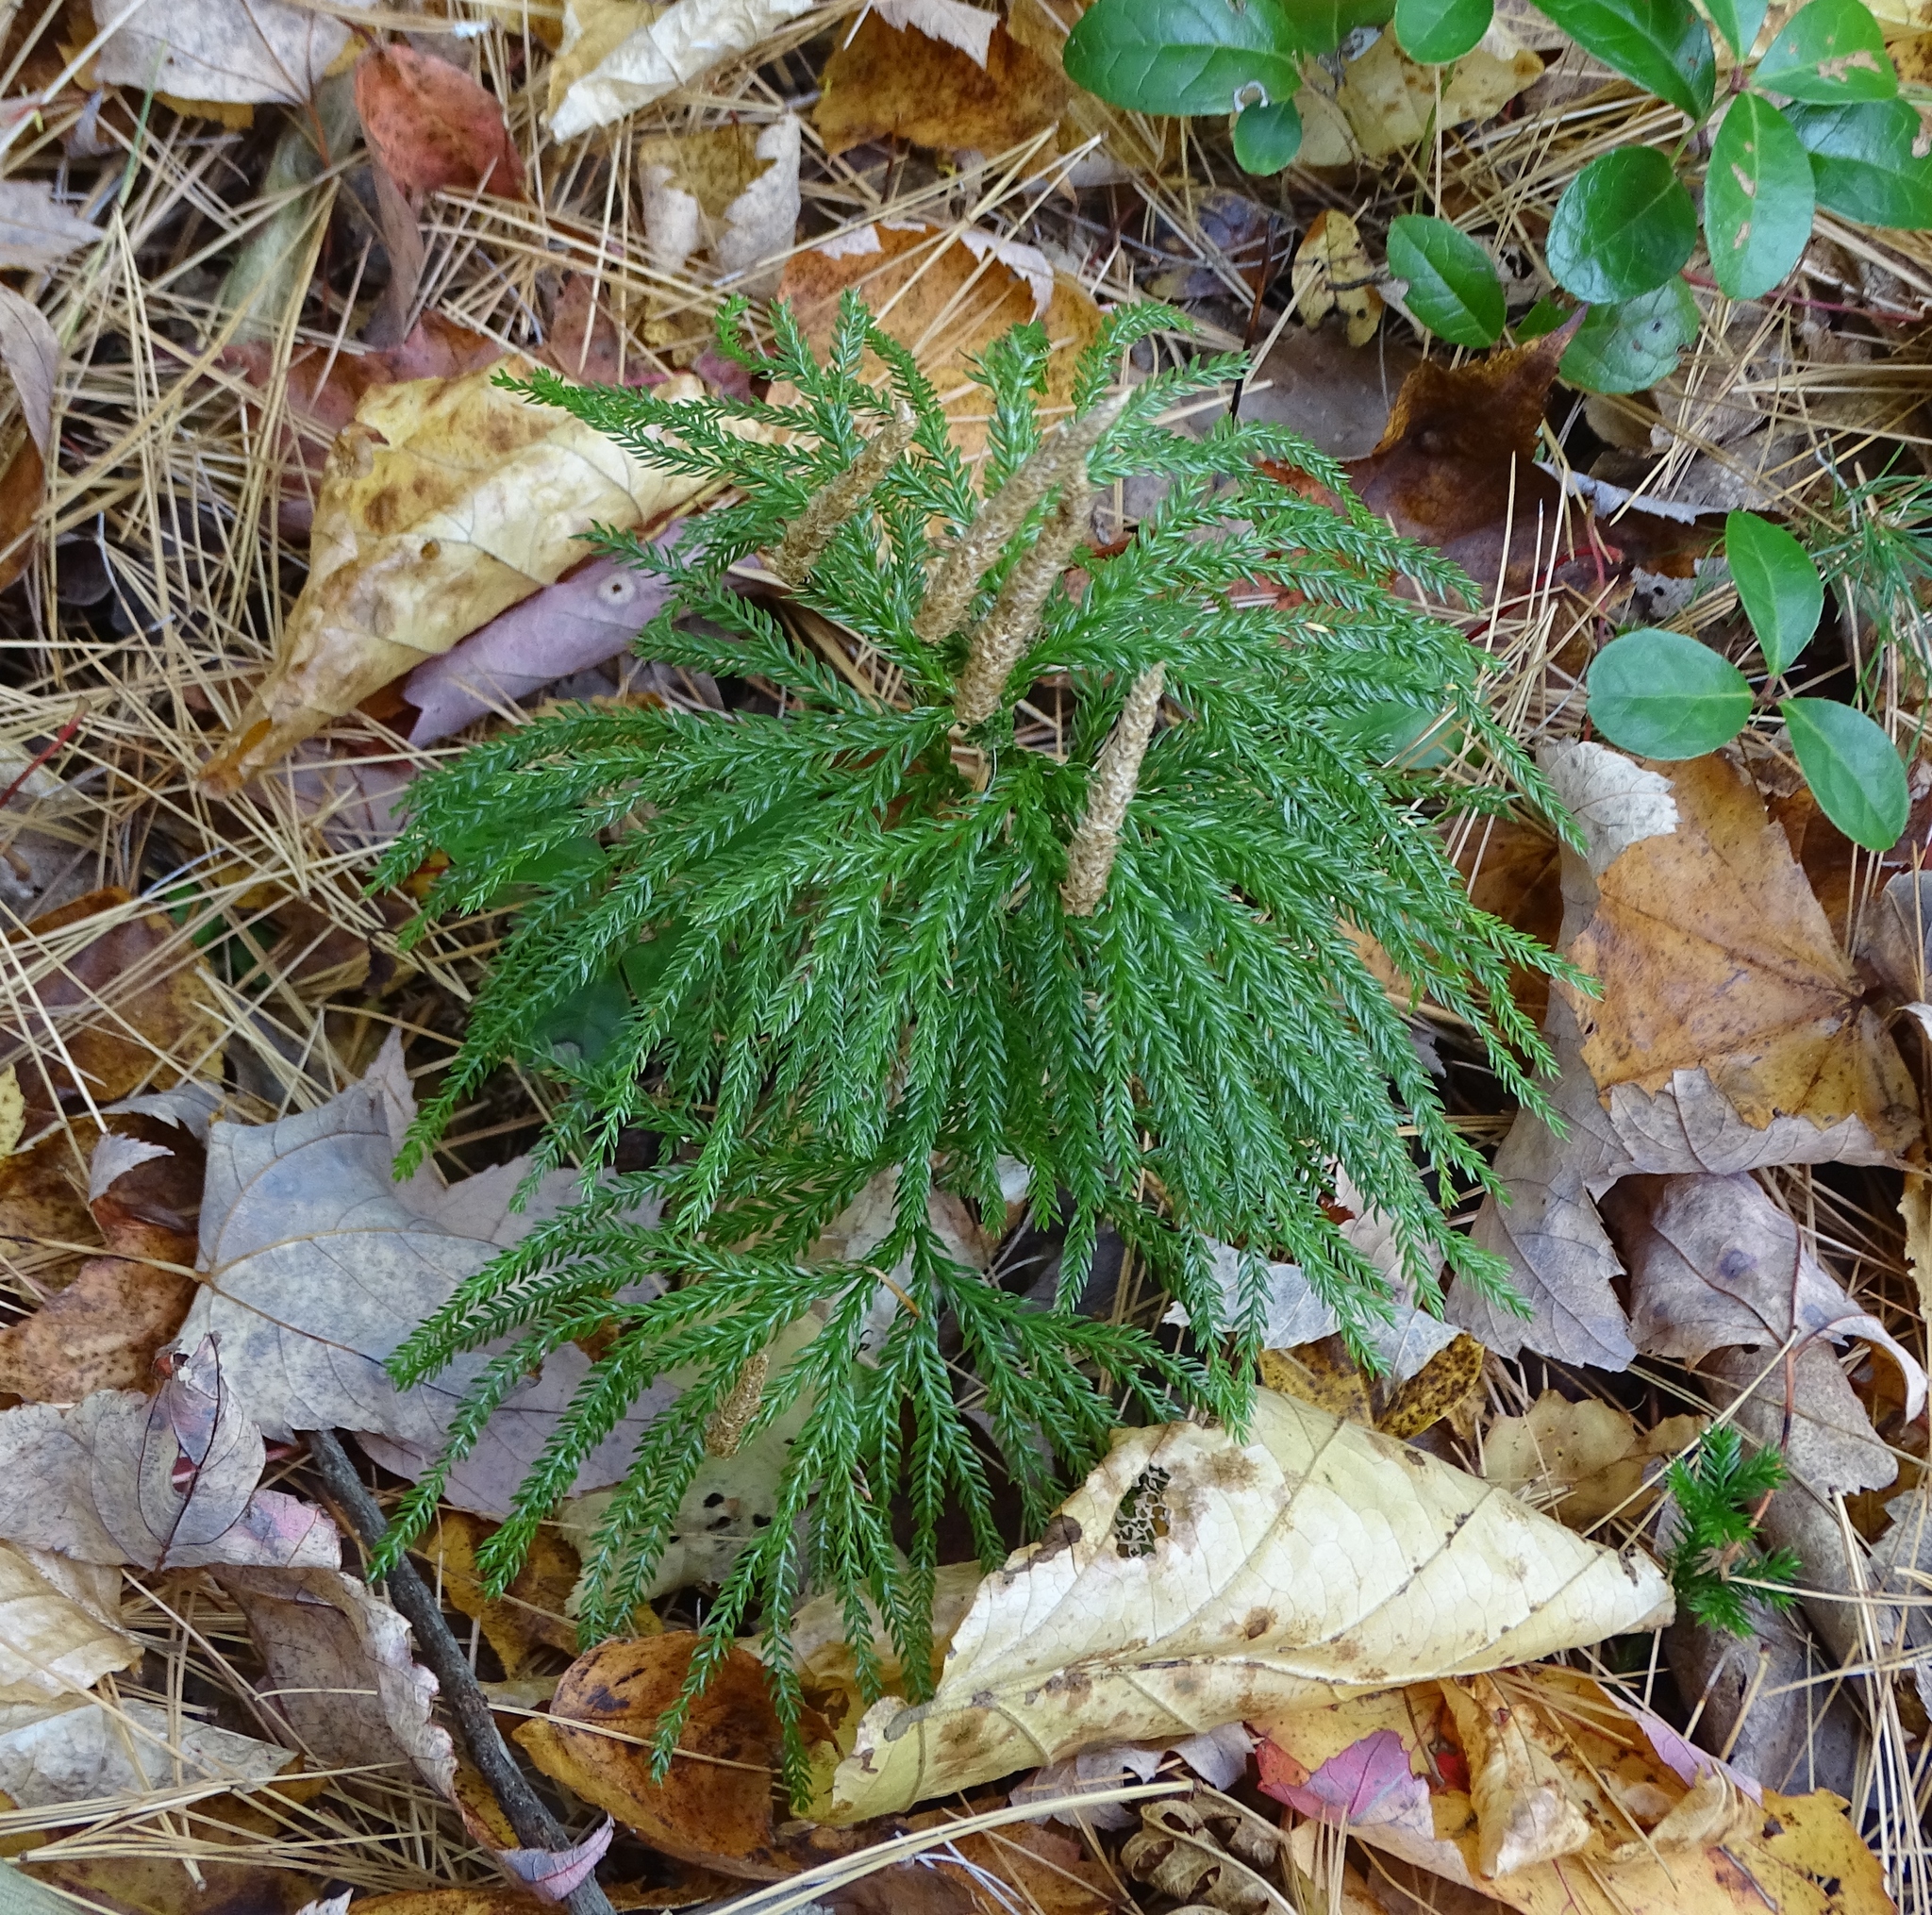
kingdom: Plantae
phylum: Tracheophyta
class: Lycopodiopsida
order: Lycopodiales
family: Lycopodiaceae
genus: Dendrolycopodium
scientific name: Dendrolycopodium obscurum
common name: Common ground-pine
